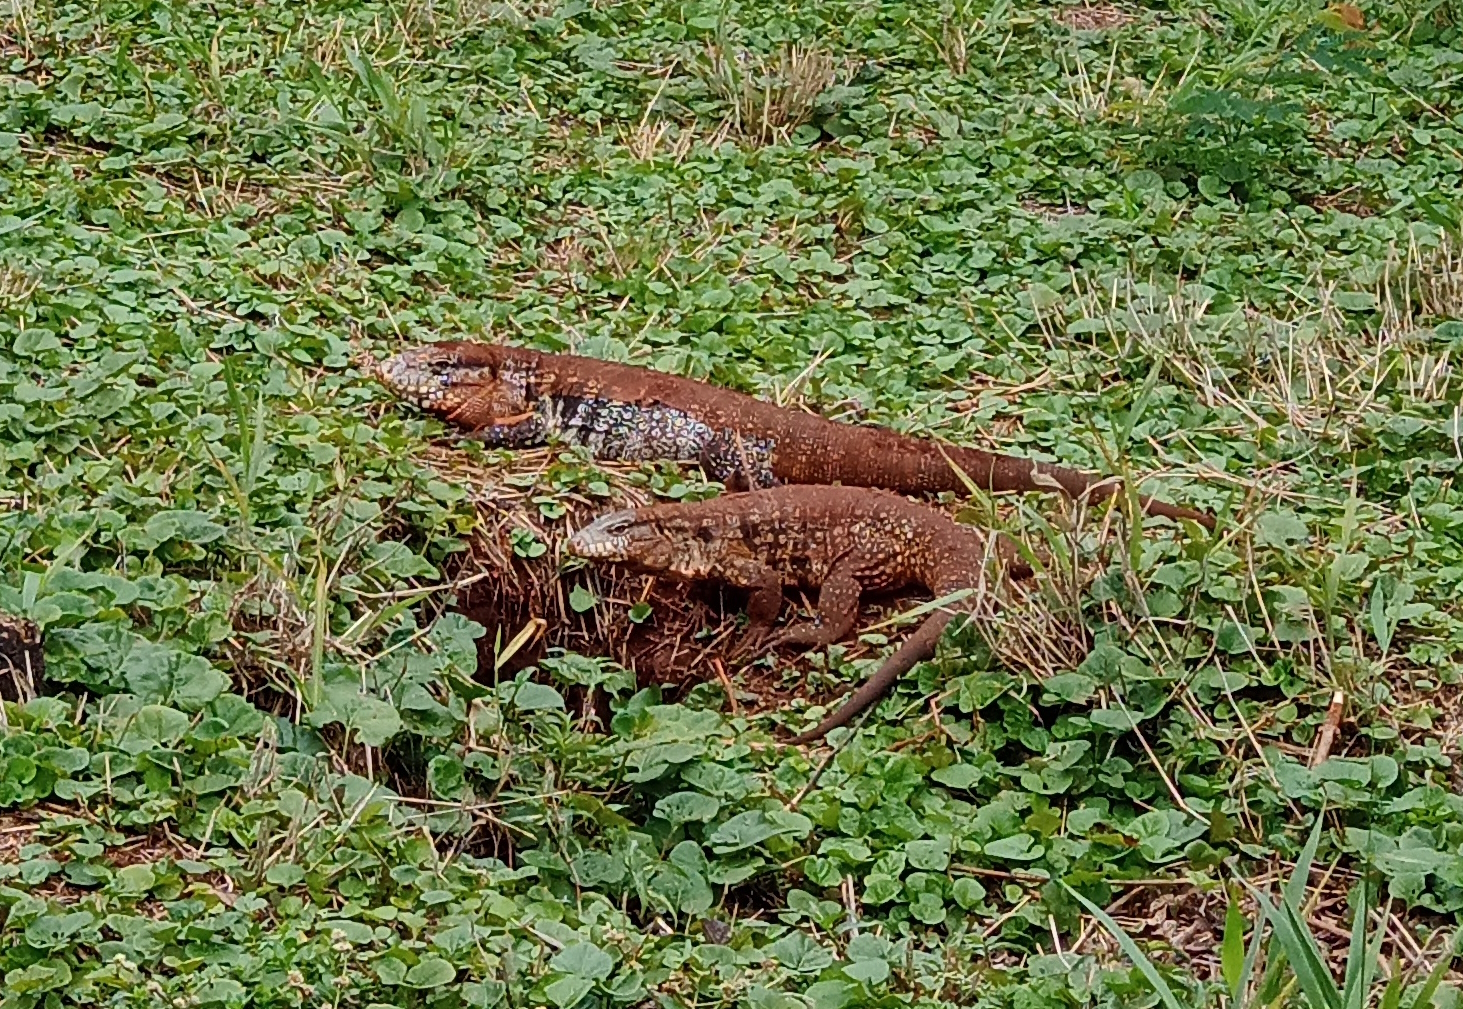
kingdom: Animalia
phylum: Chordata
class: Squamata
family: Teiidae
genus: Salvator
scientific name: Salvator merianae
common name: Argentine black and white tegu
